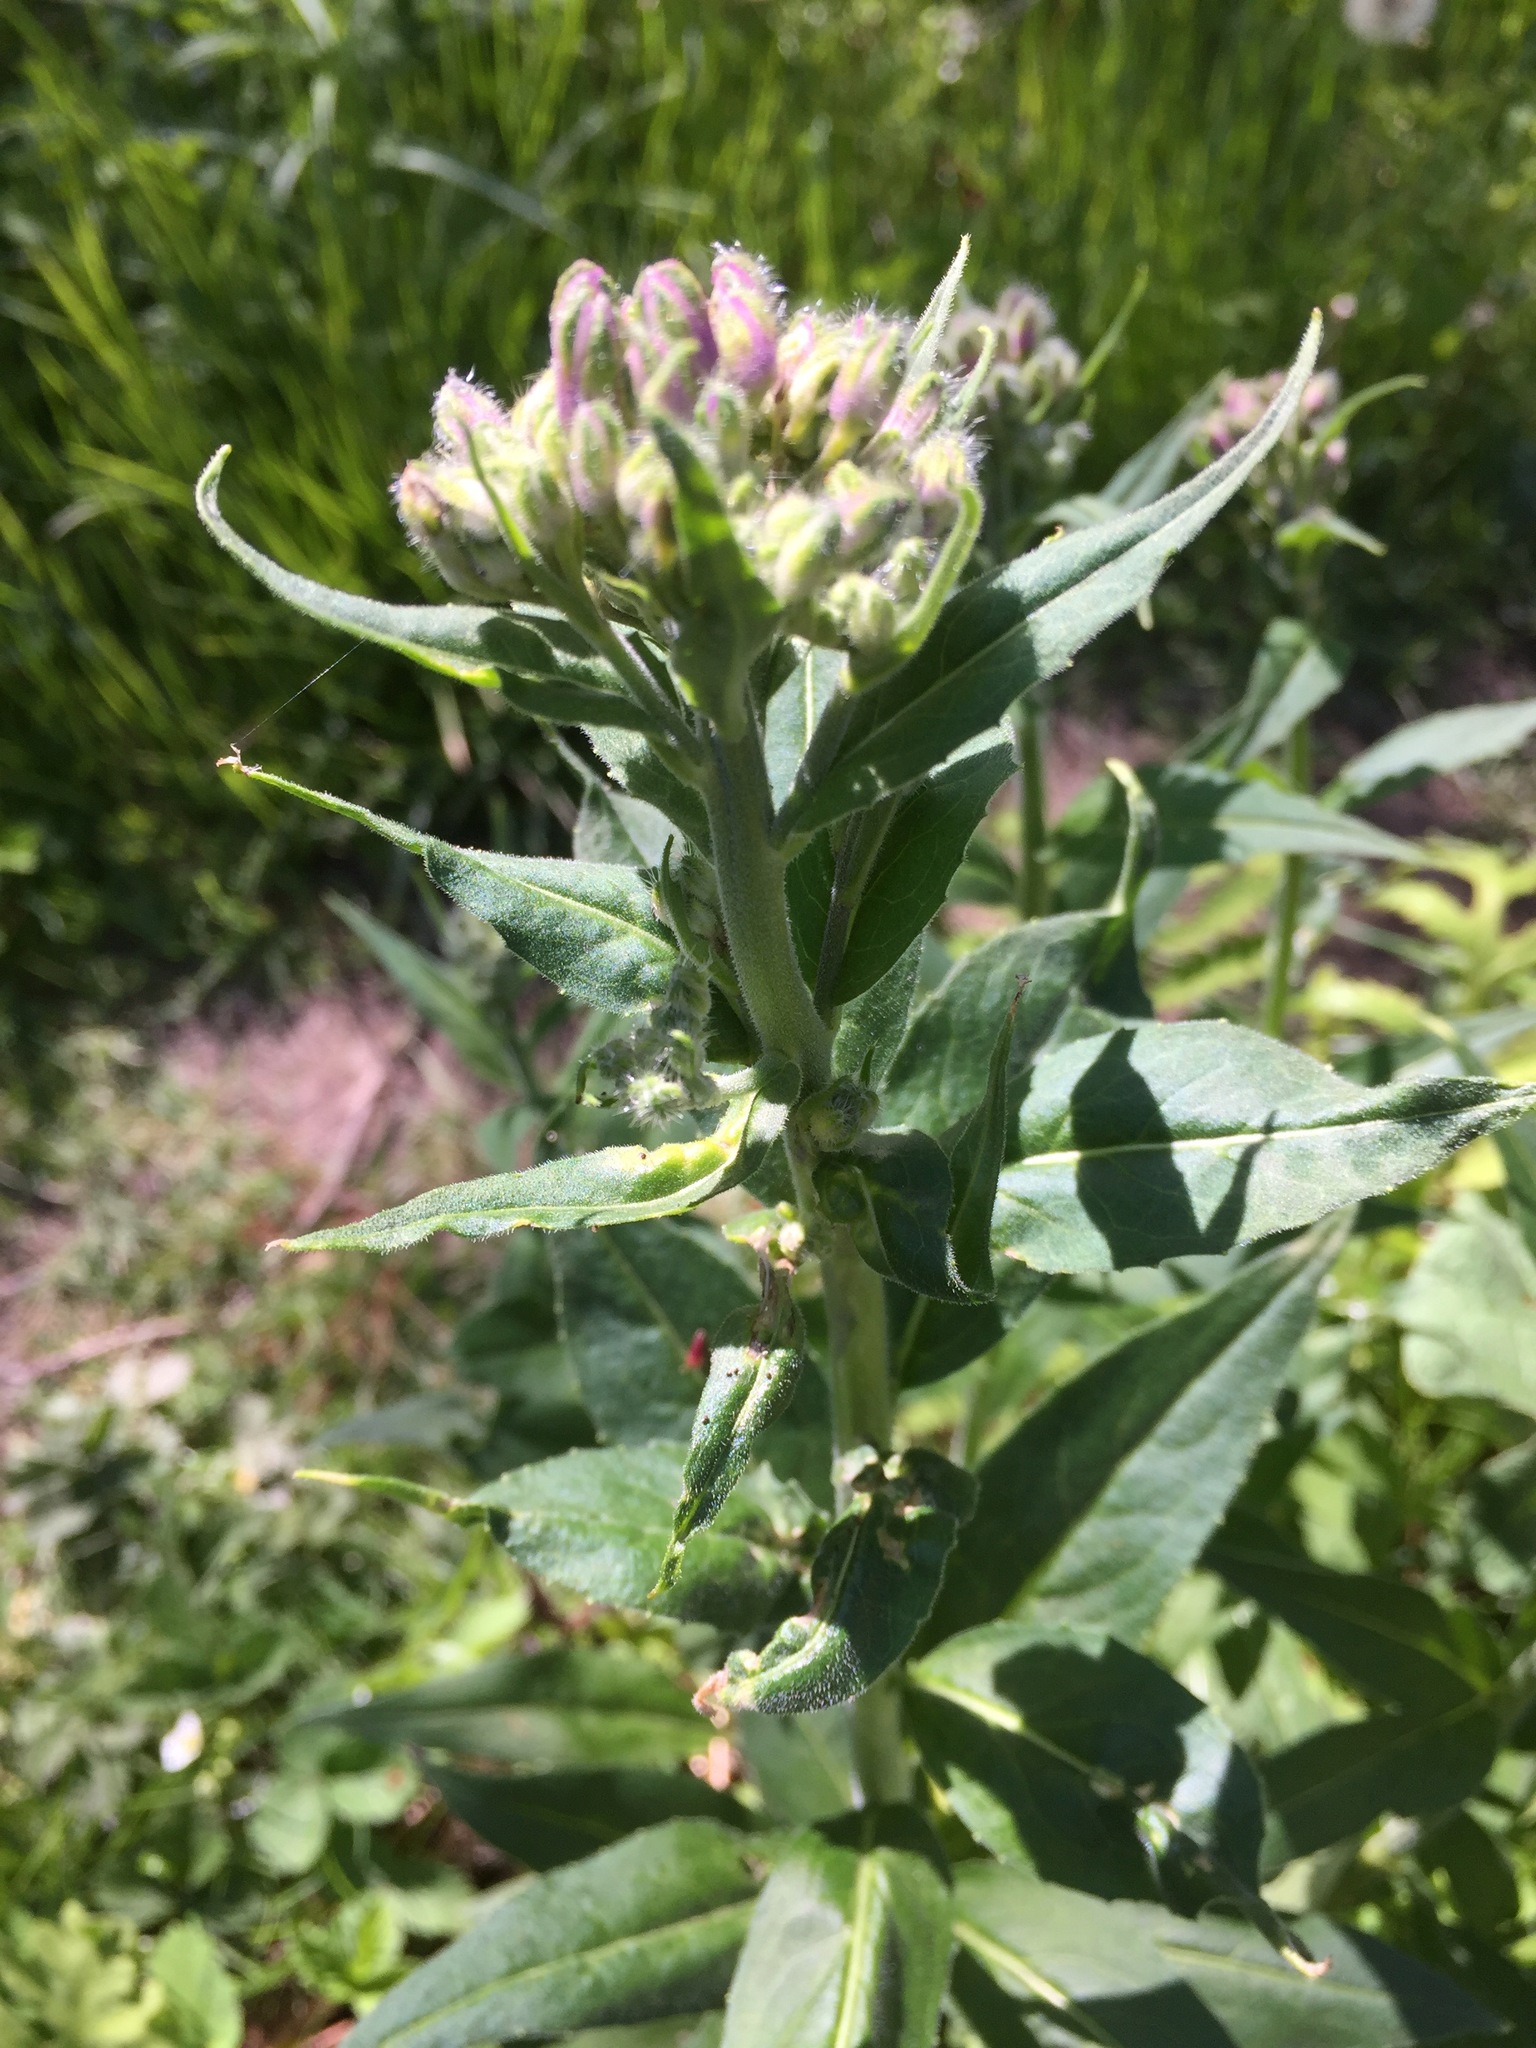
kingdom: Plantae
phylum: Tracheophyta
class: Magnoliopsida
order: Brassicales
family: Brassicaceae
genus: Hesperis
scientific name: Hesperis matronalis
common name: Dame's-violet
